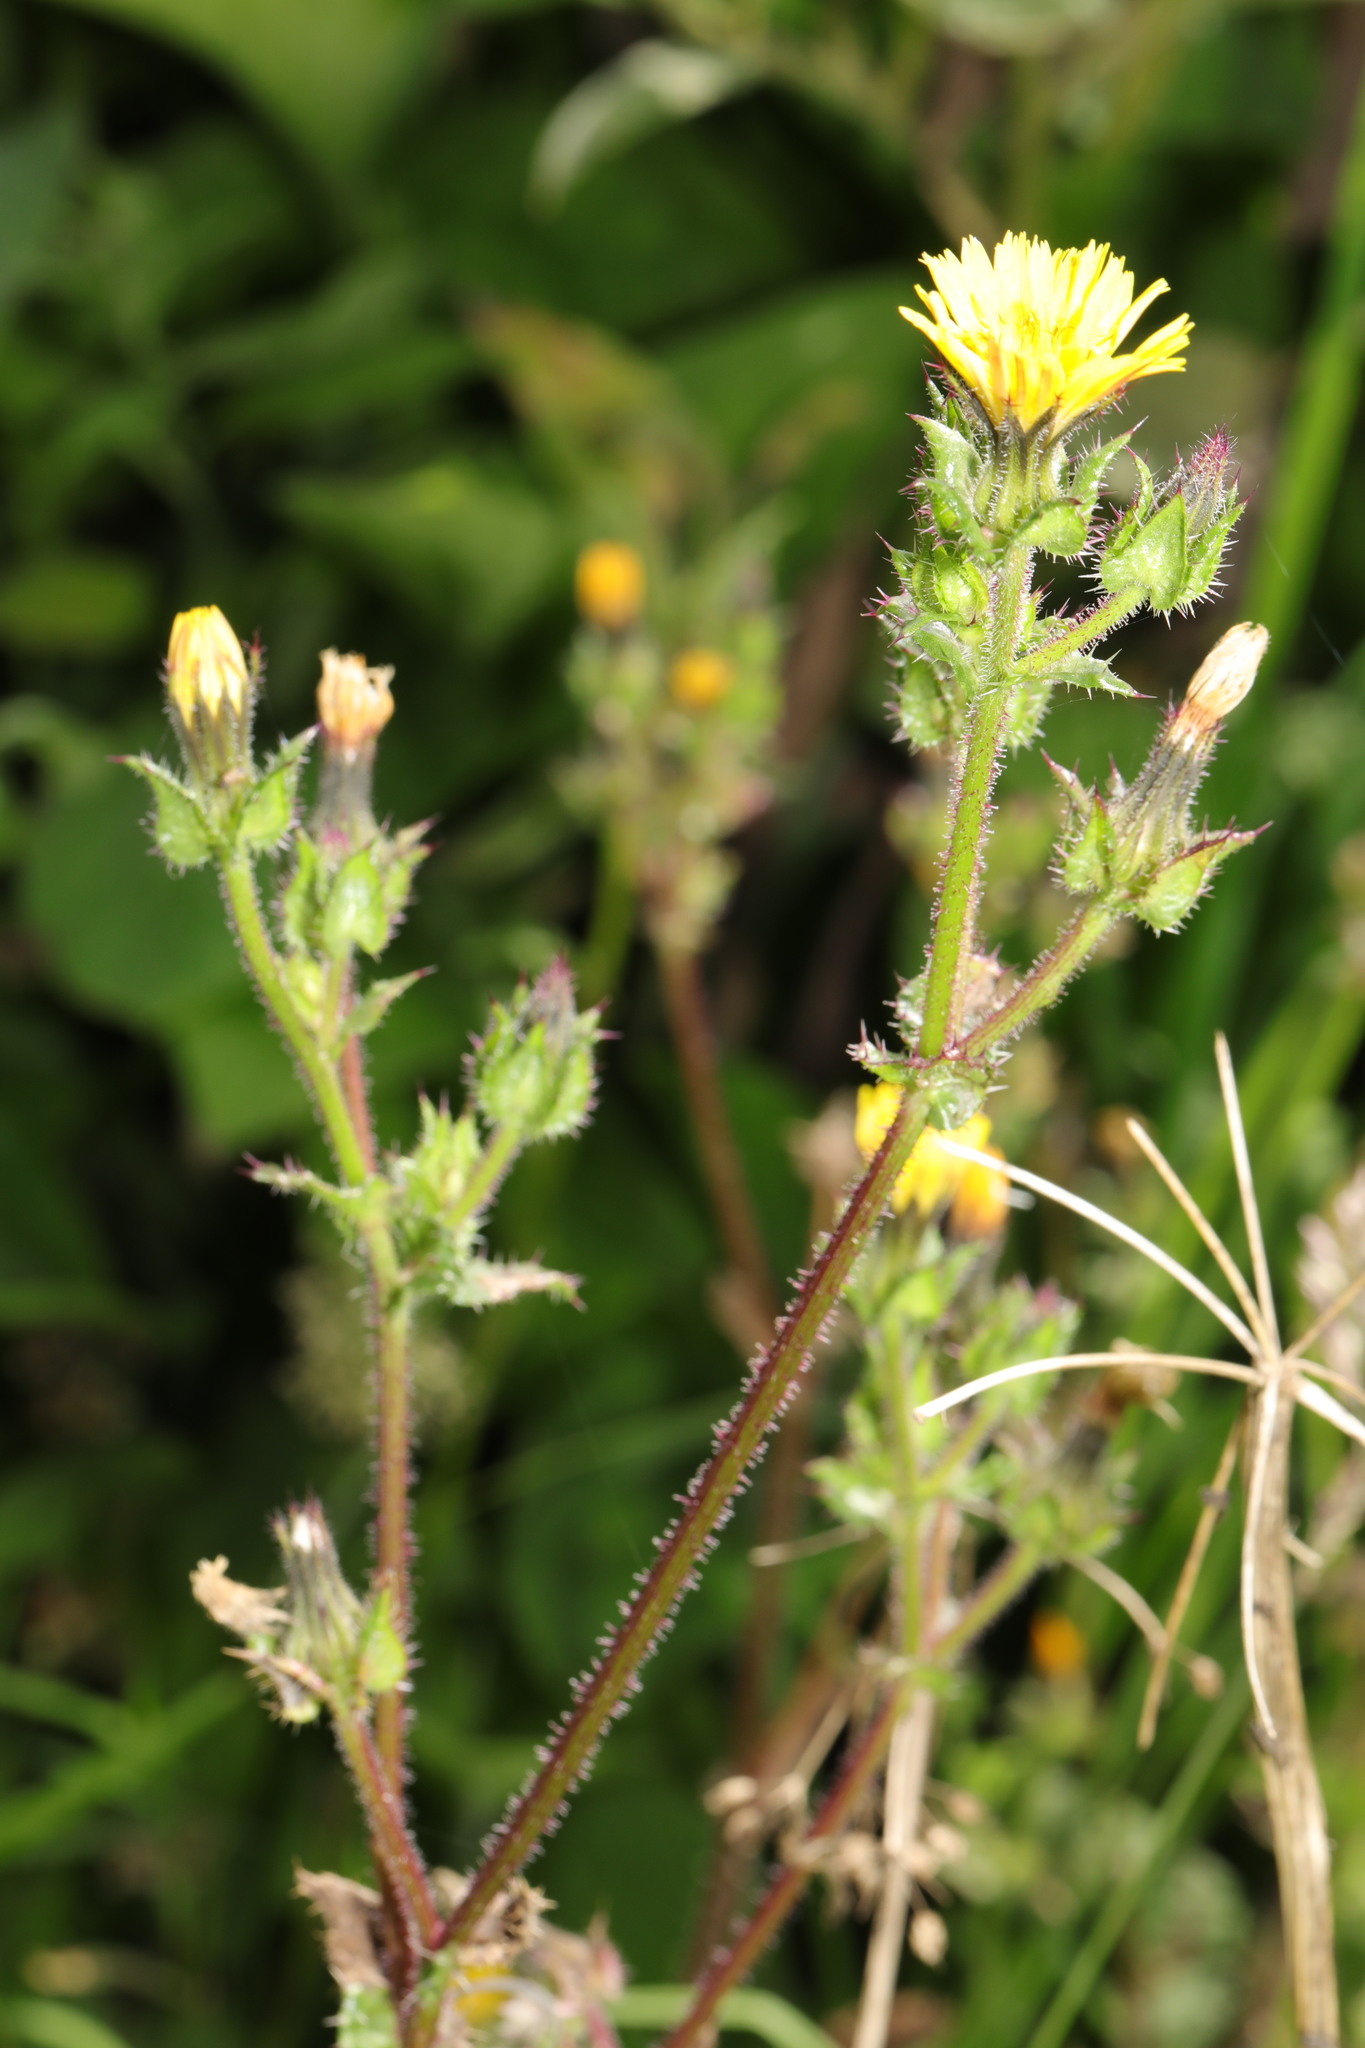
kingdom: Plantae
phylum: Tracheophyta
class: Magnoliopsida
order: Asterales
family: Asteraceae
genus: Helminthotheca
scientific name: Helminthotheca echioides
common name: Ox-tongue
